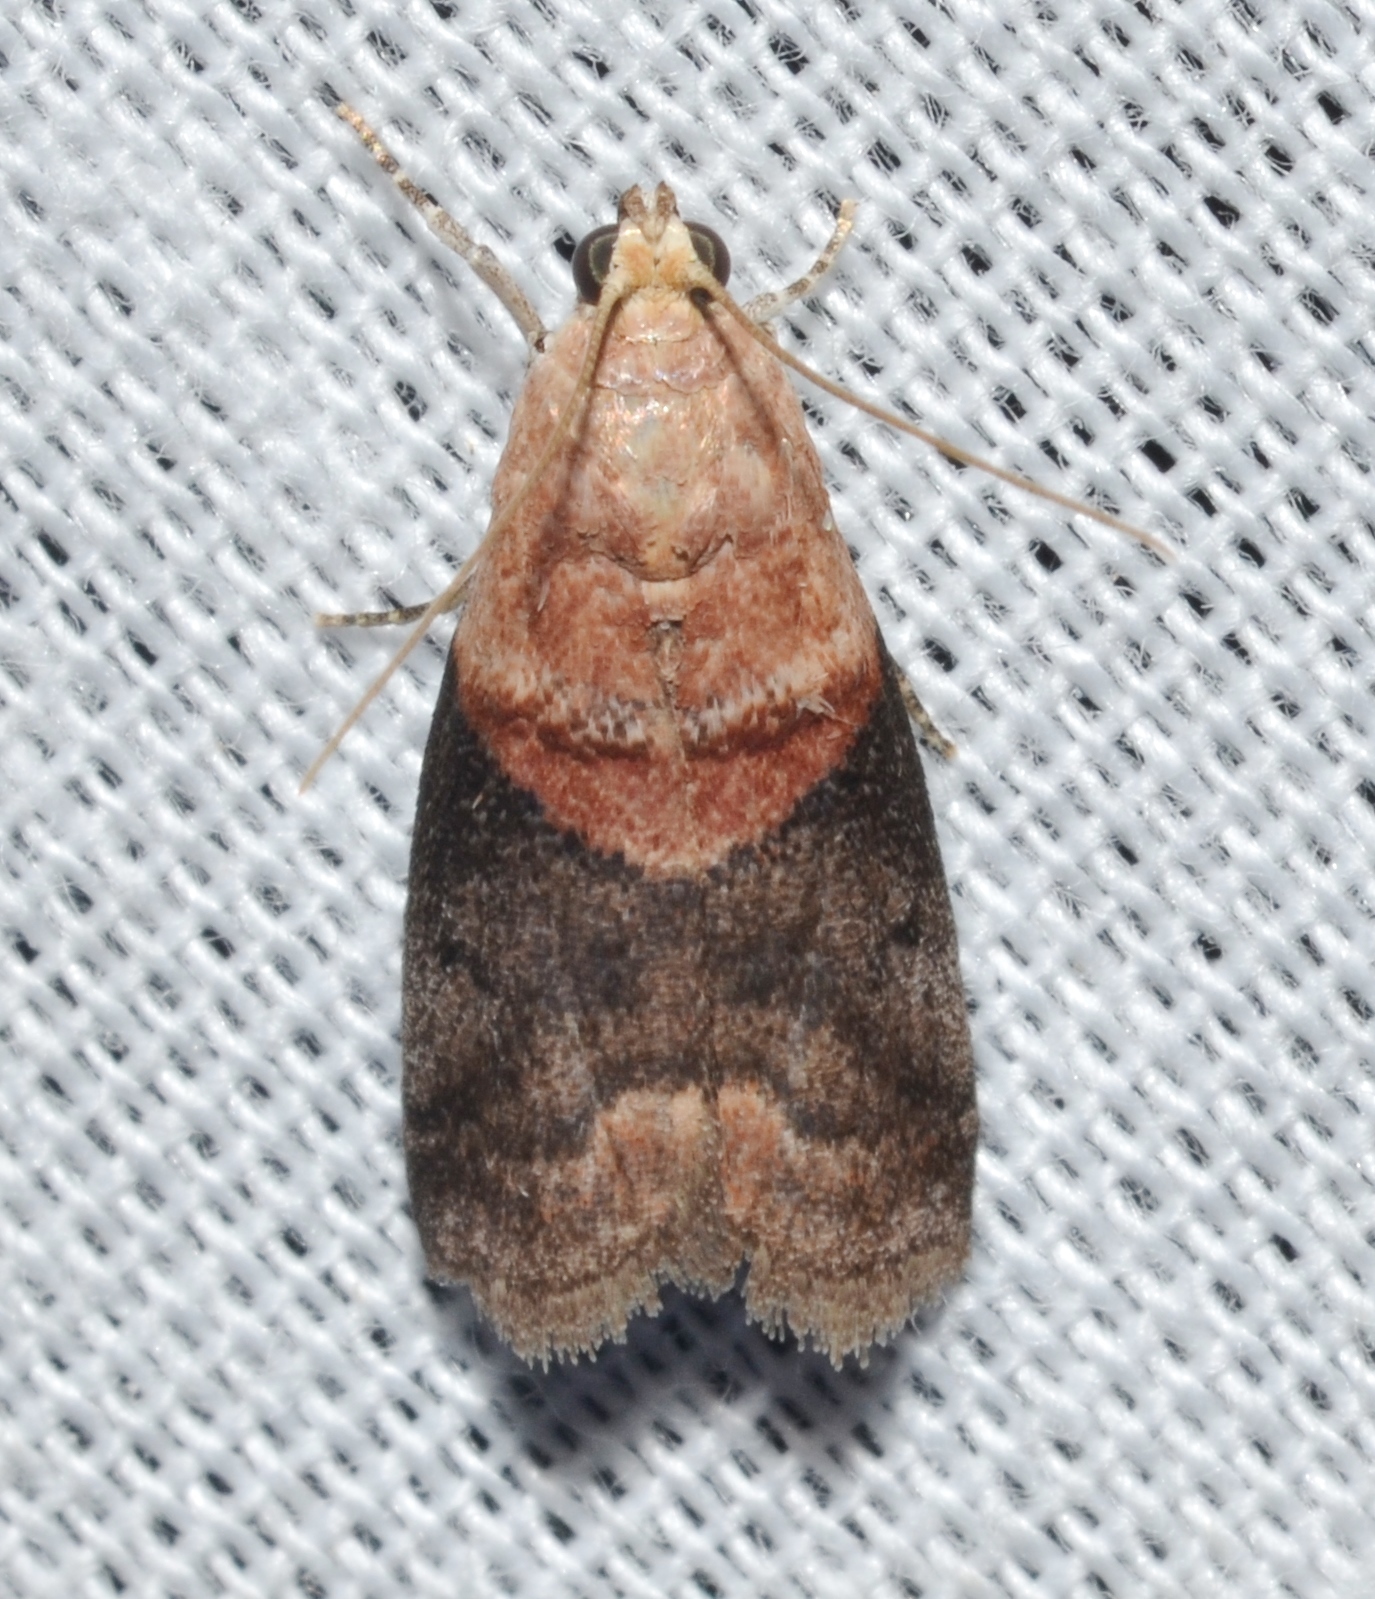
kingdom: Animalia
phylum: Arthropoda
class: Insecta
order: Lepidoptera
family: Pyralidae
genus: Acrobasis
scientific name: Acrobasis angusella
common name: Hickory leafstem borer moth
